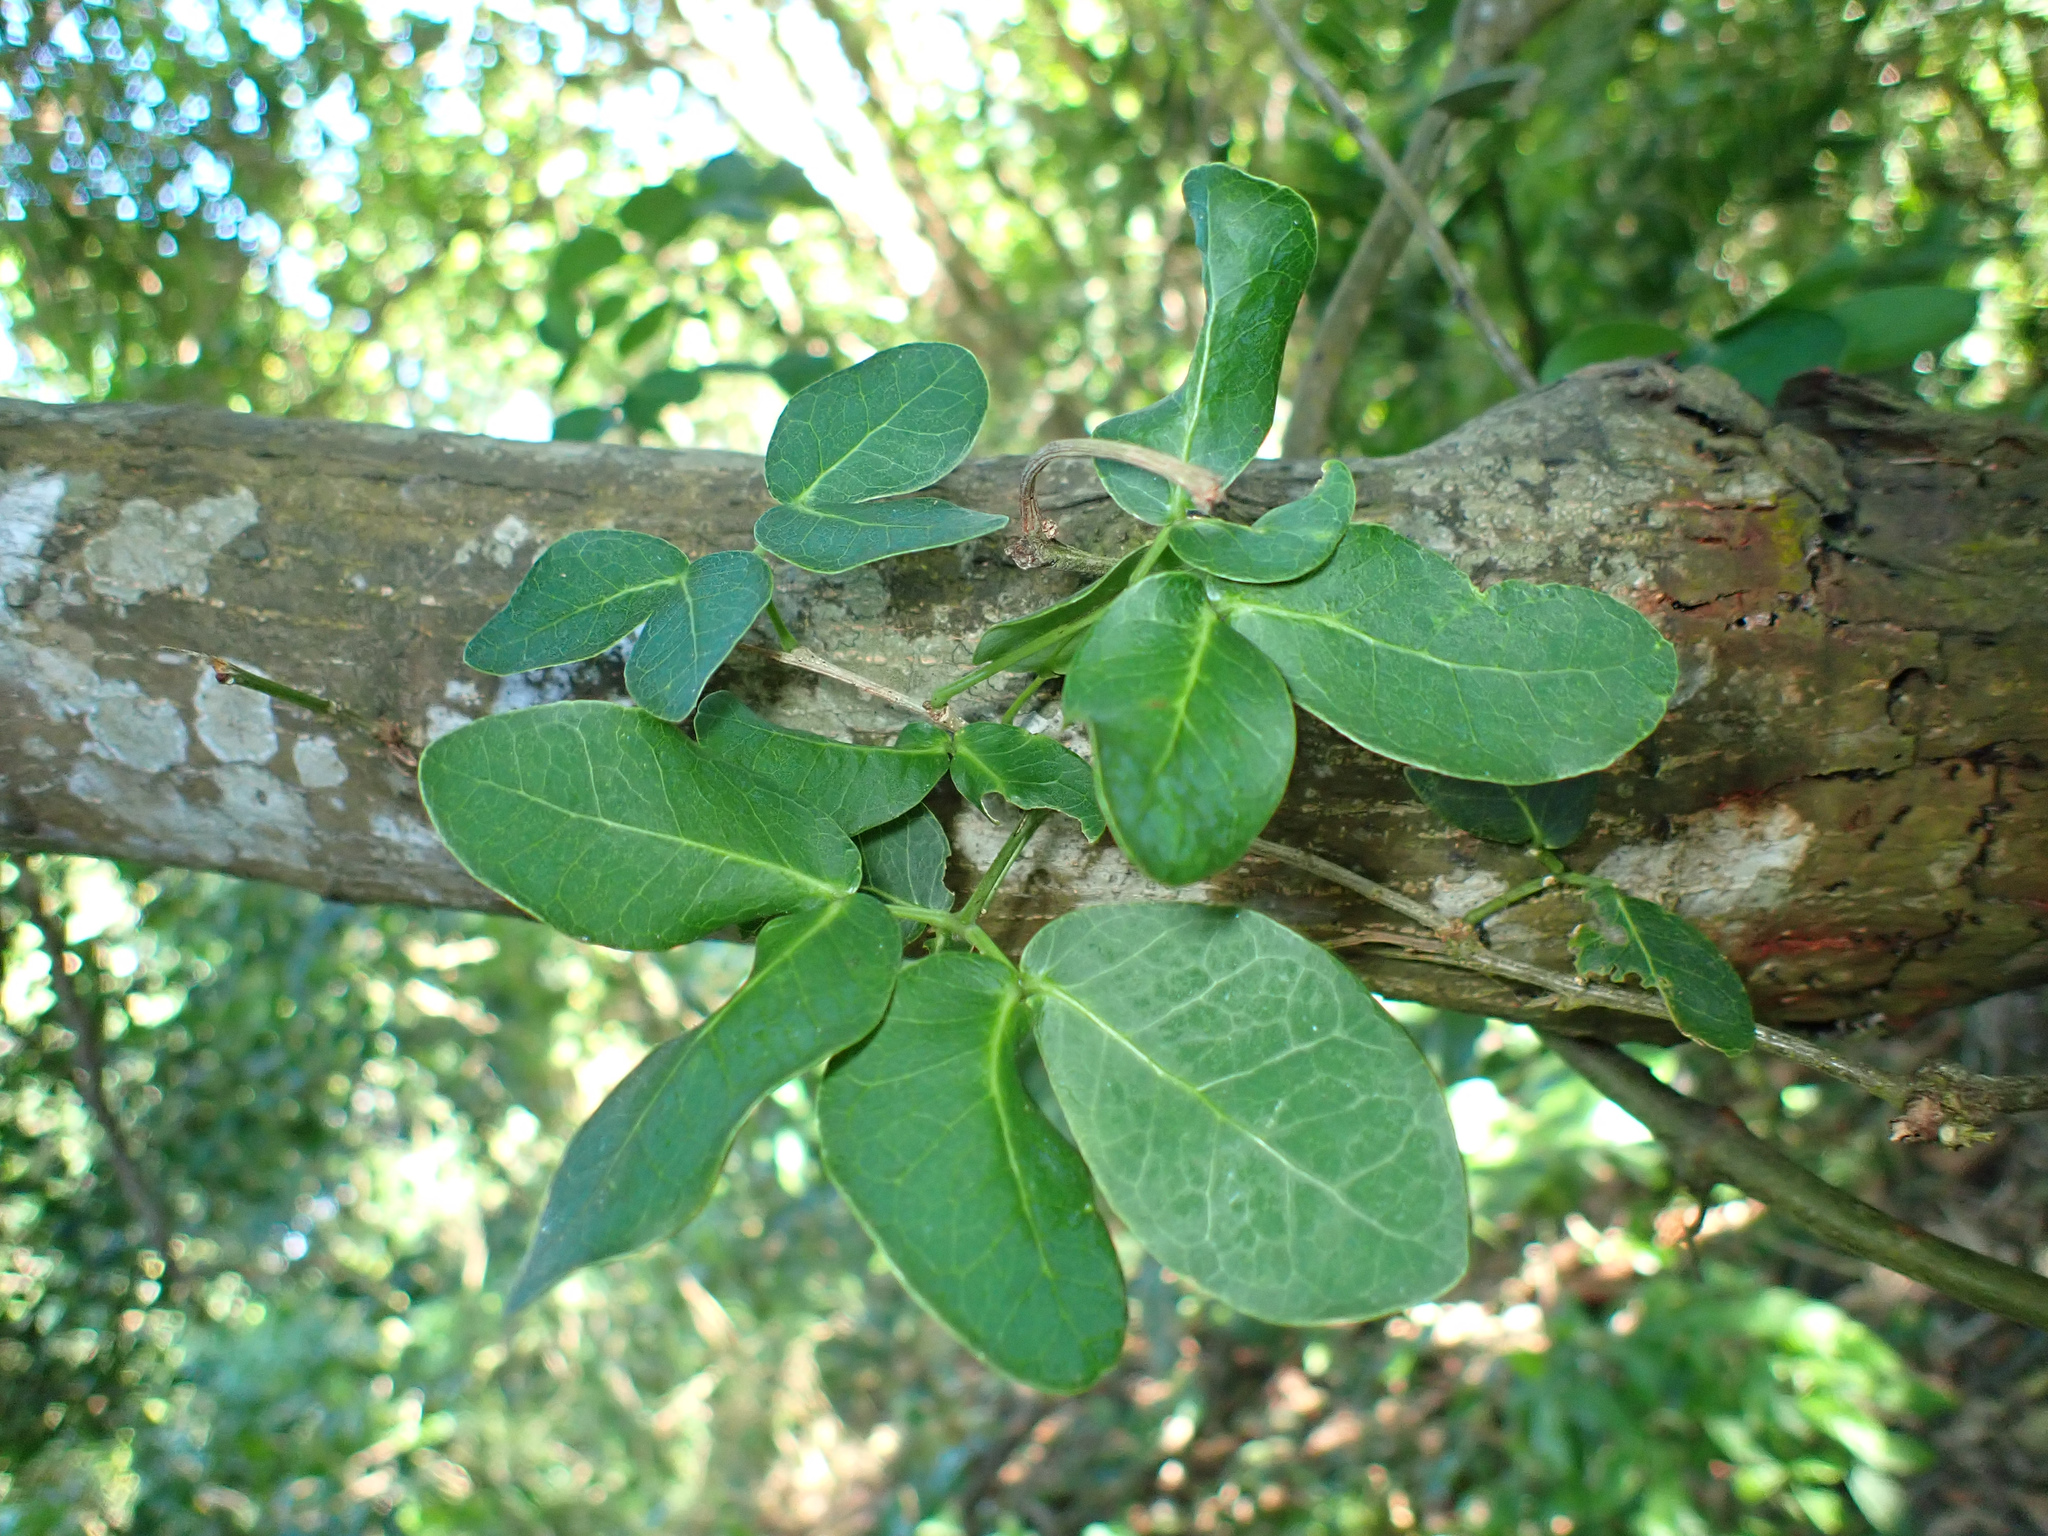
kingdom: Plantae
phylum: Tracheophyta
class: Magnoliopsida
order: Fabales
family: Fabaceae
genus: Pithecellobium
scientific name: Pithecellobium unguis-cati
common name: Cat's-claw
